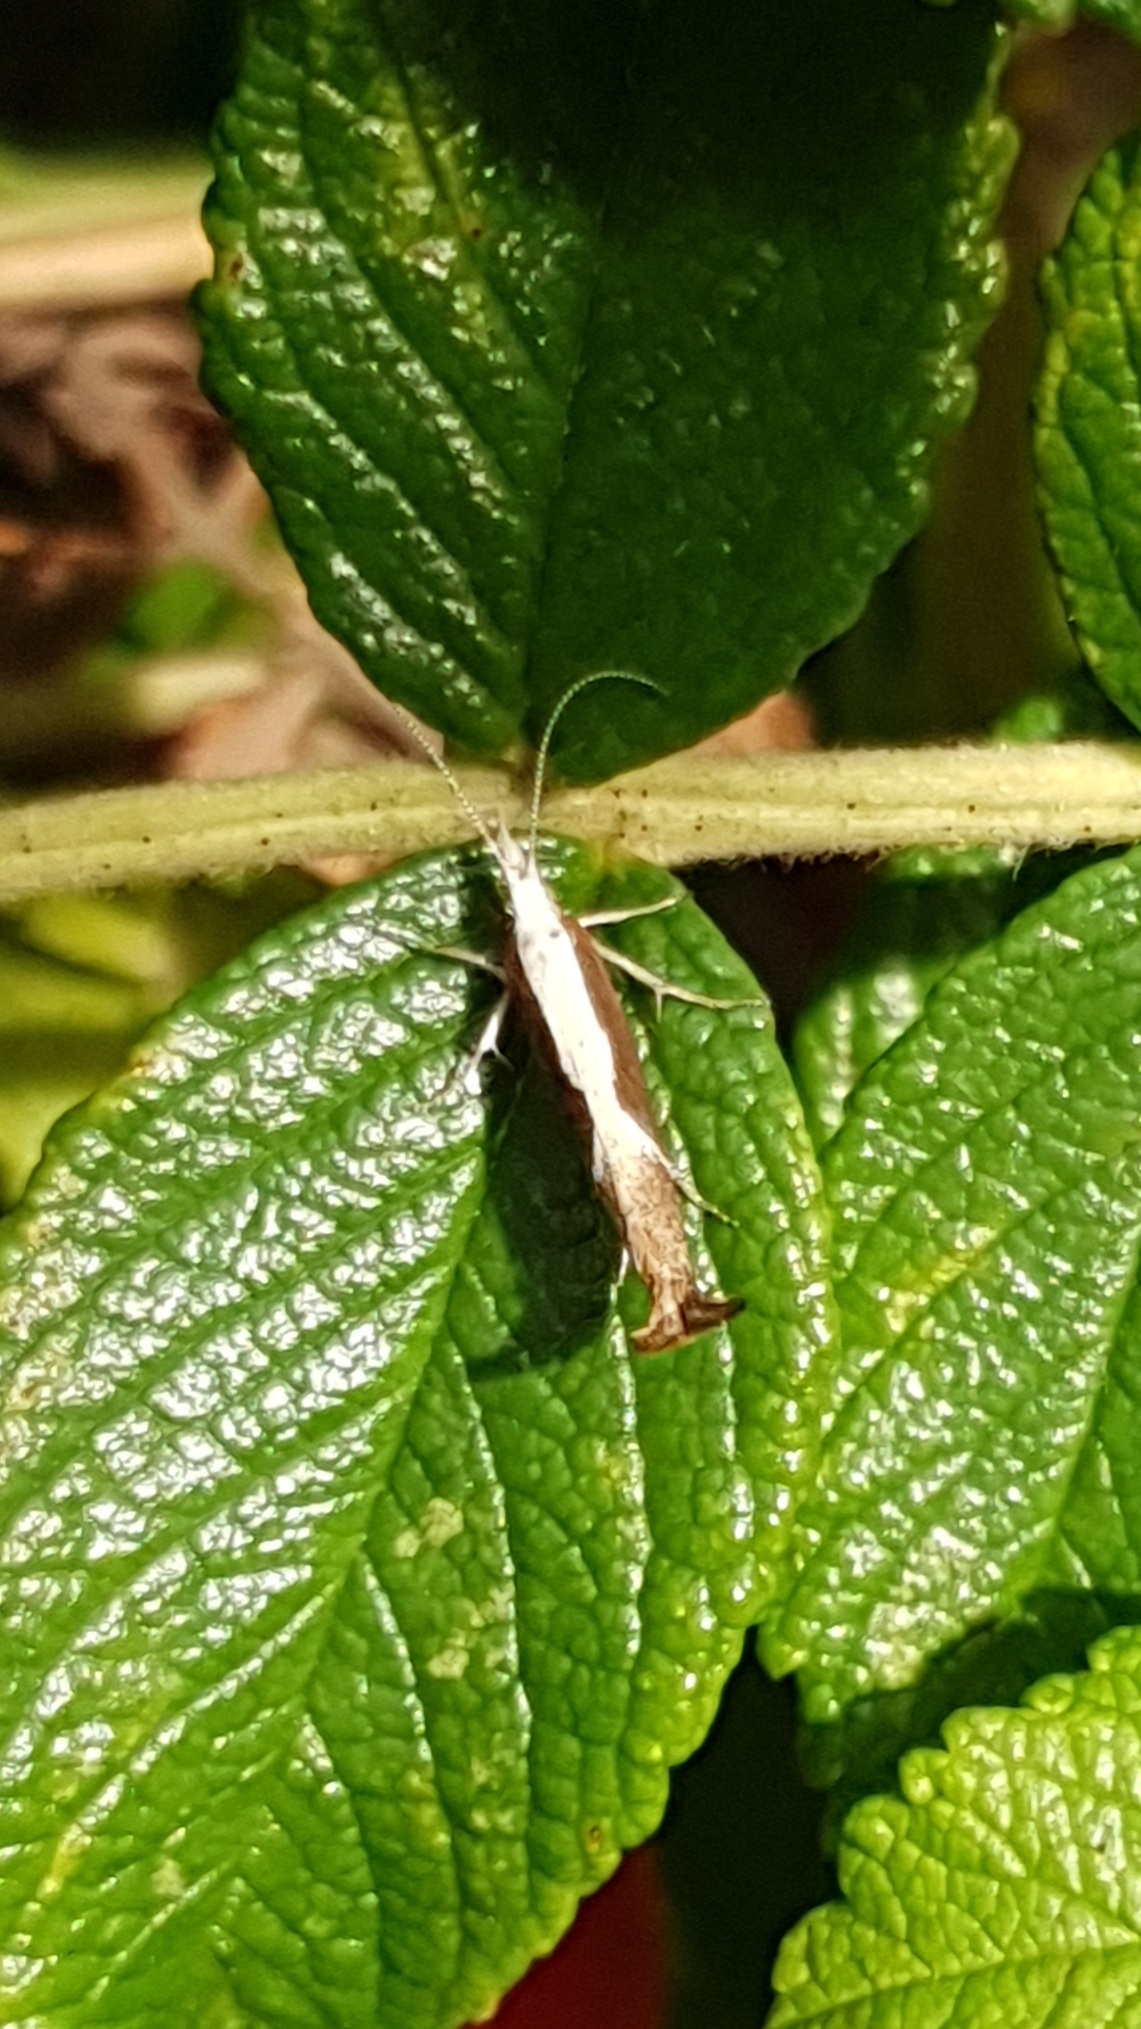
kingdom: Animalia
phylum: Arthropoda
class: Insecta
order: Lepidoptera
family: Ypsolophidae
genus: Ypsolopha
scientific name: Ypsolopha dentella
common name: Honeysuckle moth
